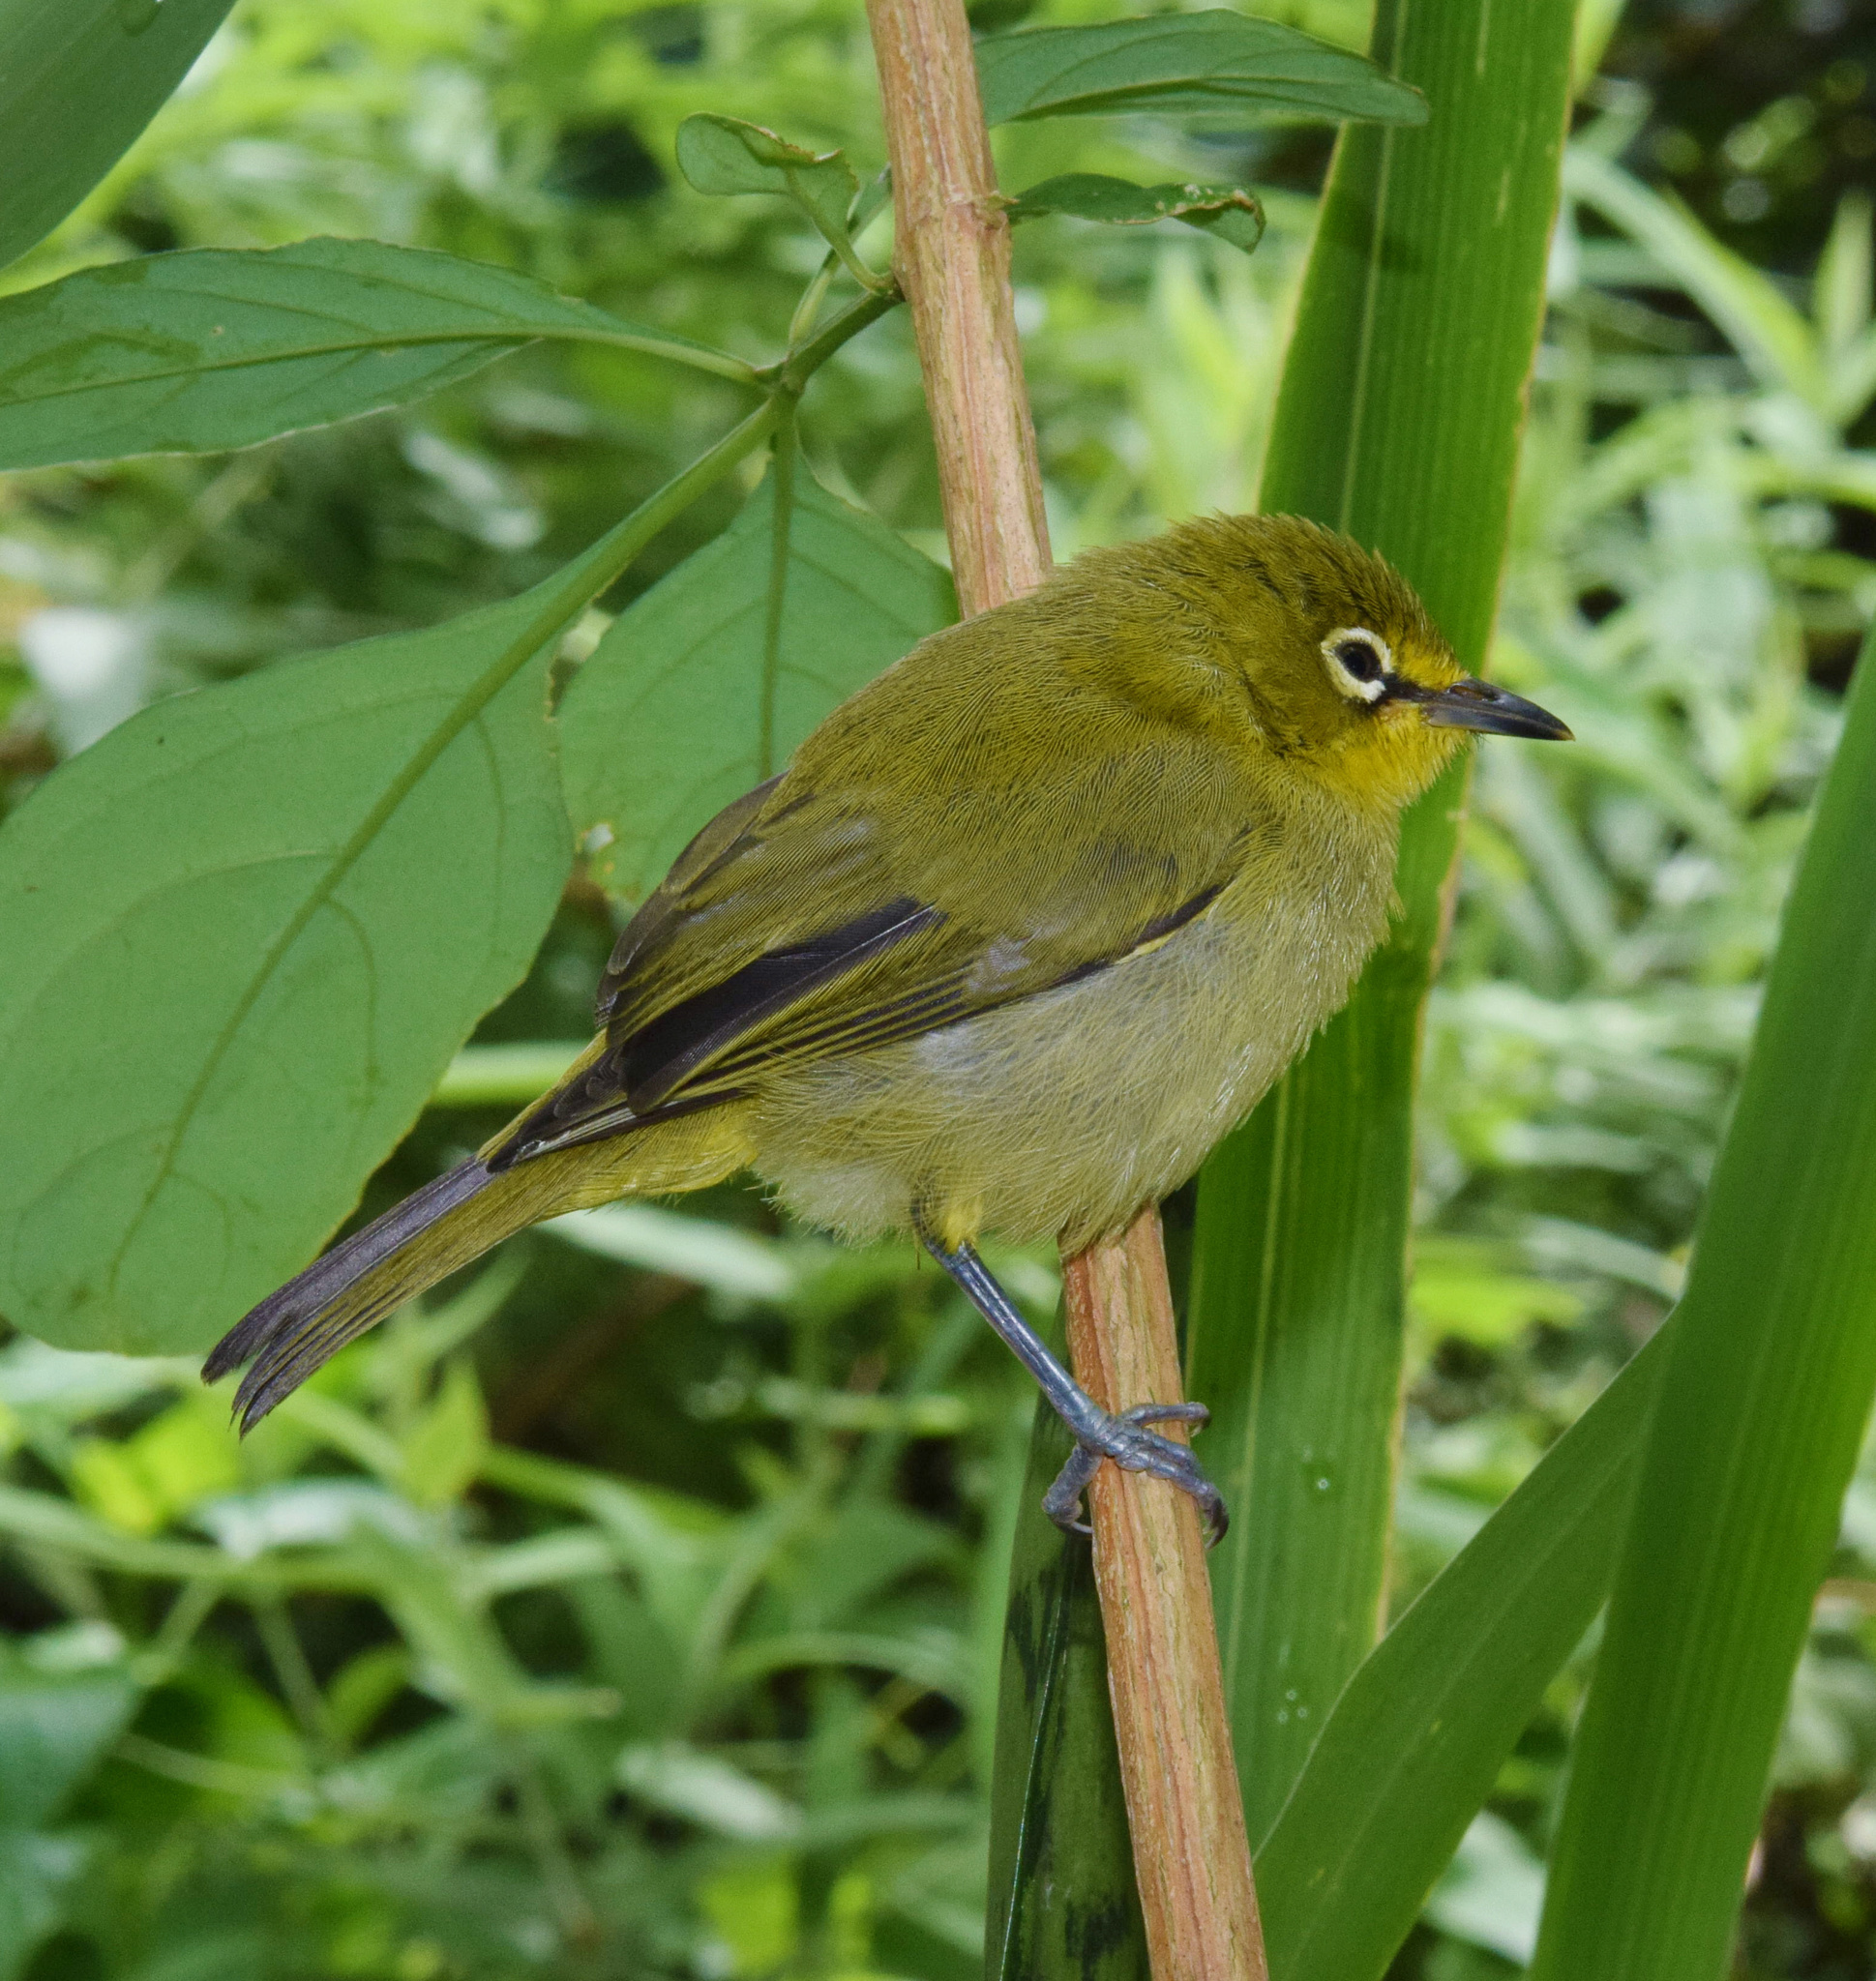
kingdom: Animalia
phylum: Chordata
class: Aves
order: Passeriformes
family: Zosteropidae
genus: Zosterops
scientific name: Zosterops virens
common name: Cape white-eye
